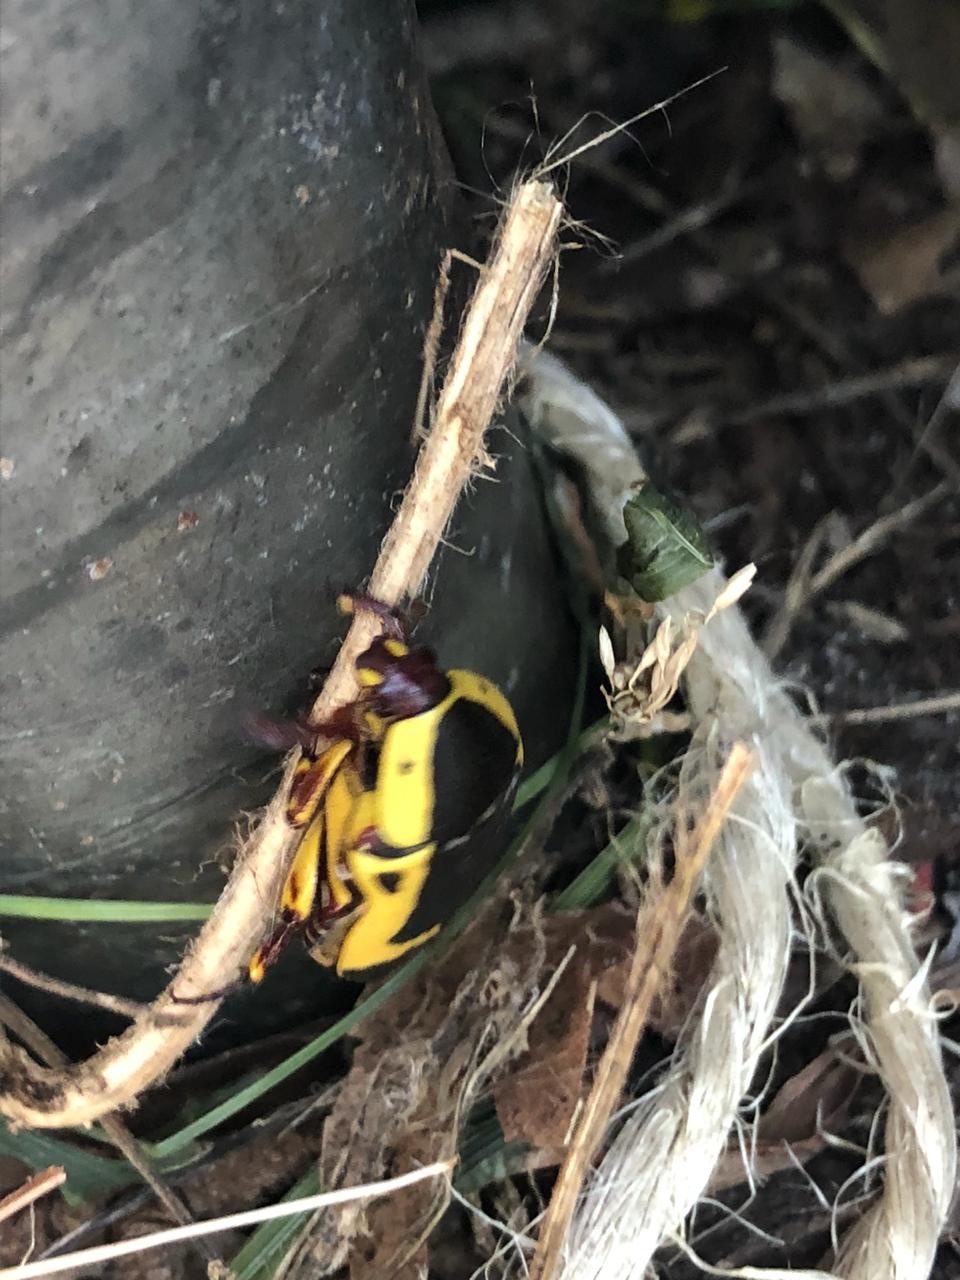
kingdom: Animalia
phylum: Arthropoda
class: Insecta
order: Coleoptera
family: Scarabaeidae
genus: Pachnoda
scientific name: Pachnoda sinuata
